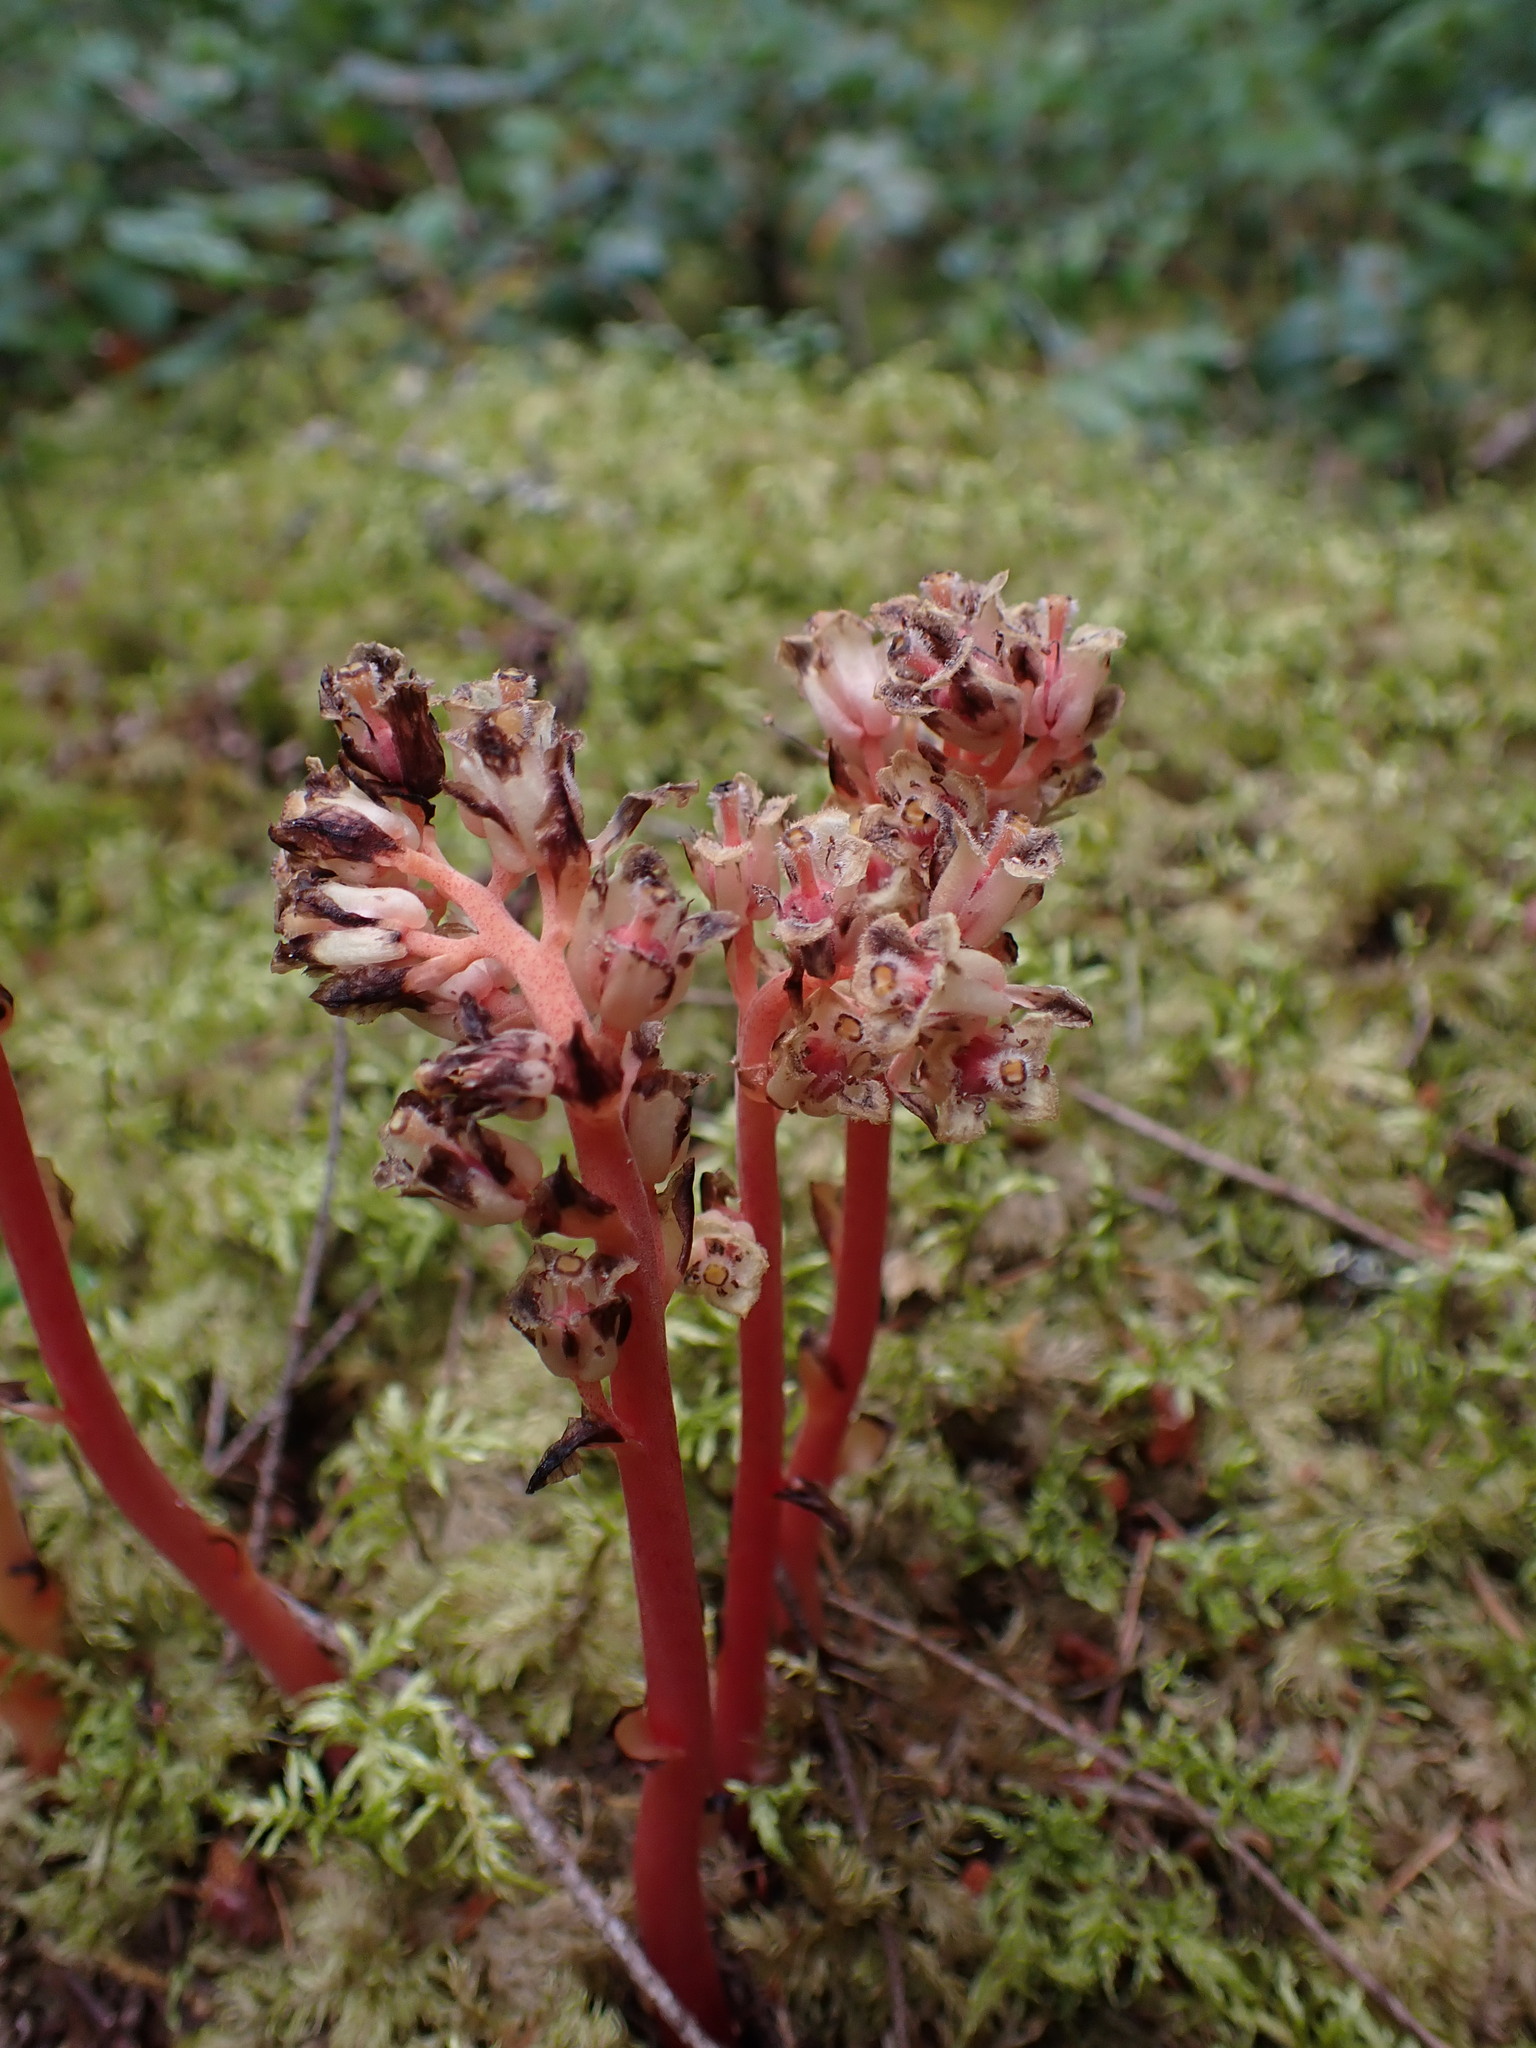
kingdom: Plantae
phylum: Tracheophyta
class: Magnoliopsida
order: Ericales
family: Ericaceae
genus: Hypopitys
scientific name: Hypopitys monotropa
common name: Yellow bird's-nest
